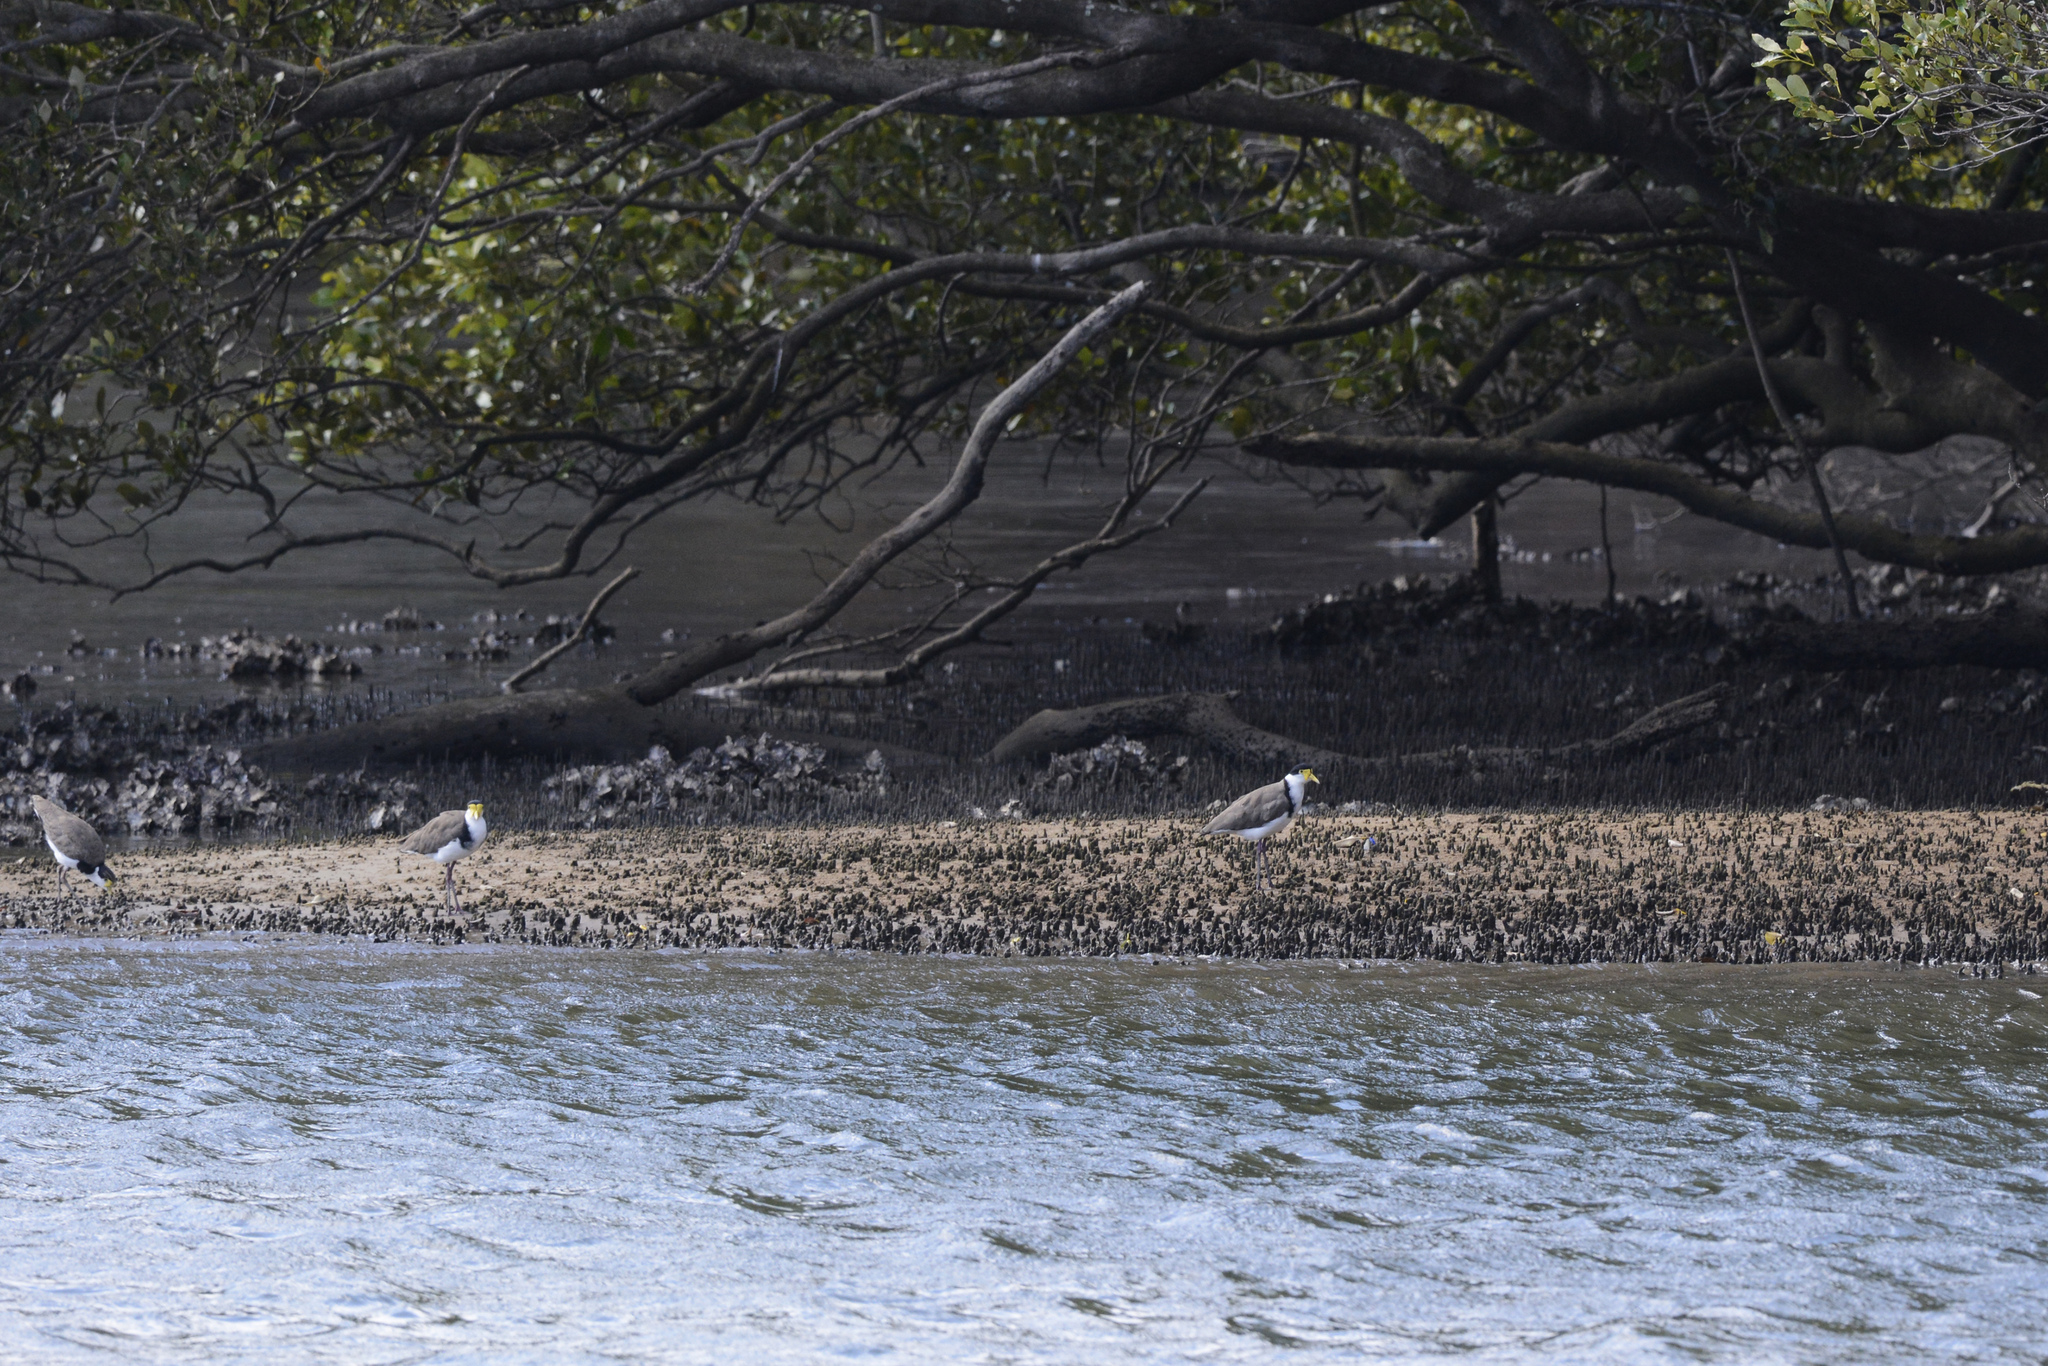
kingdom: Animalia
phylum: Chordata
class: Aves
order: Charadriiformes
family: Charadriidae
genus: Vanellus
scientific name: Vanellus miles
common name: Masked lapwing
